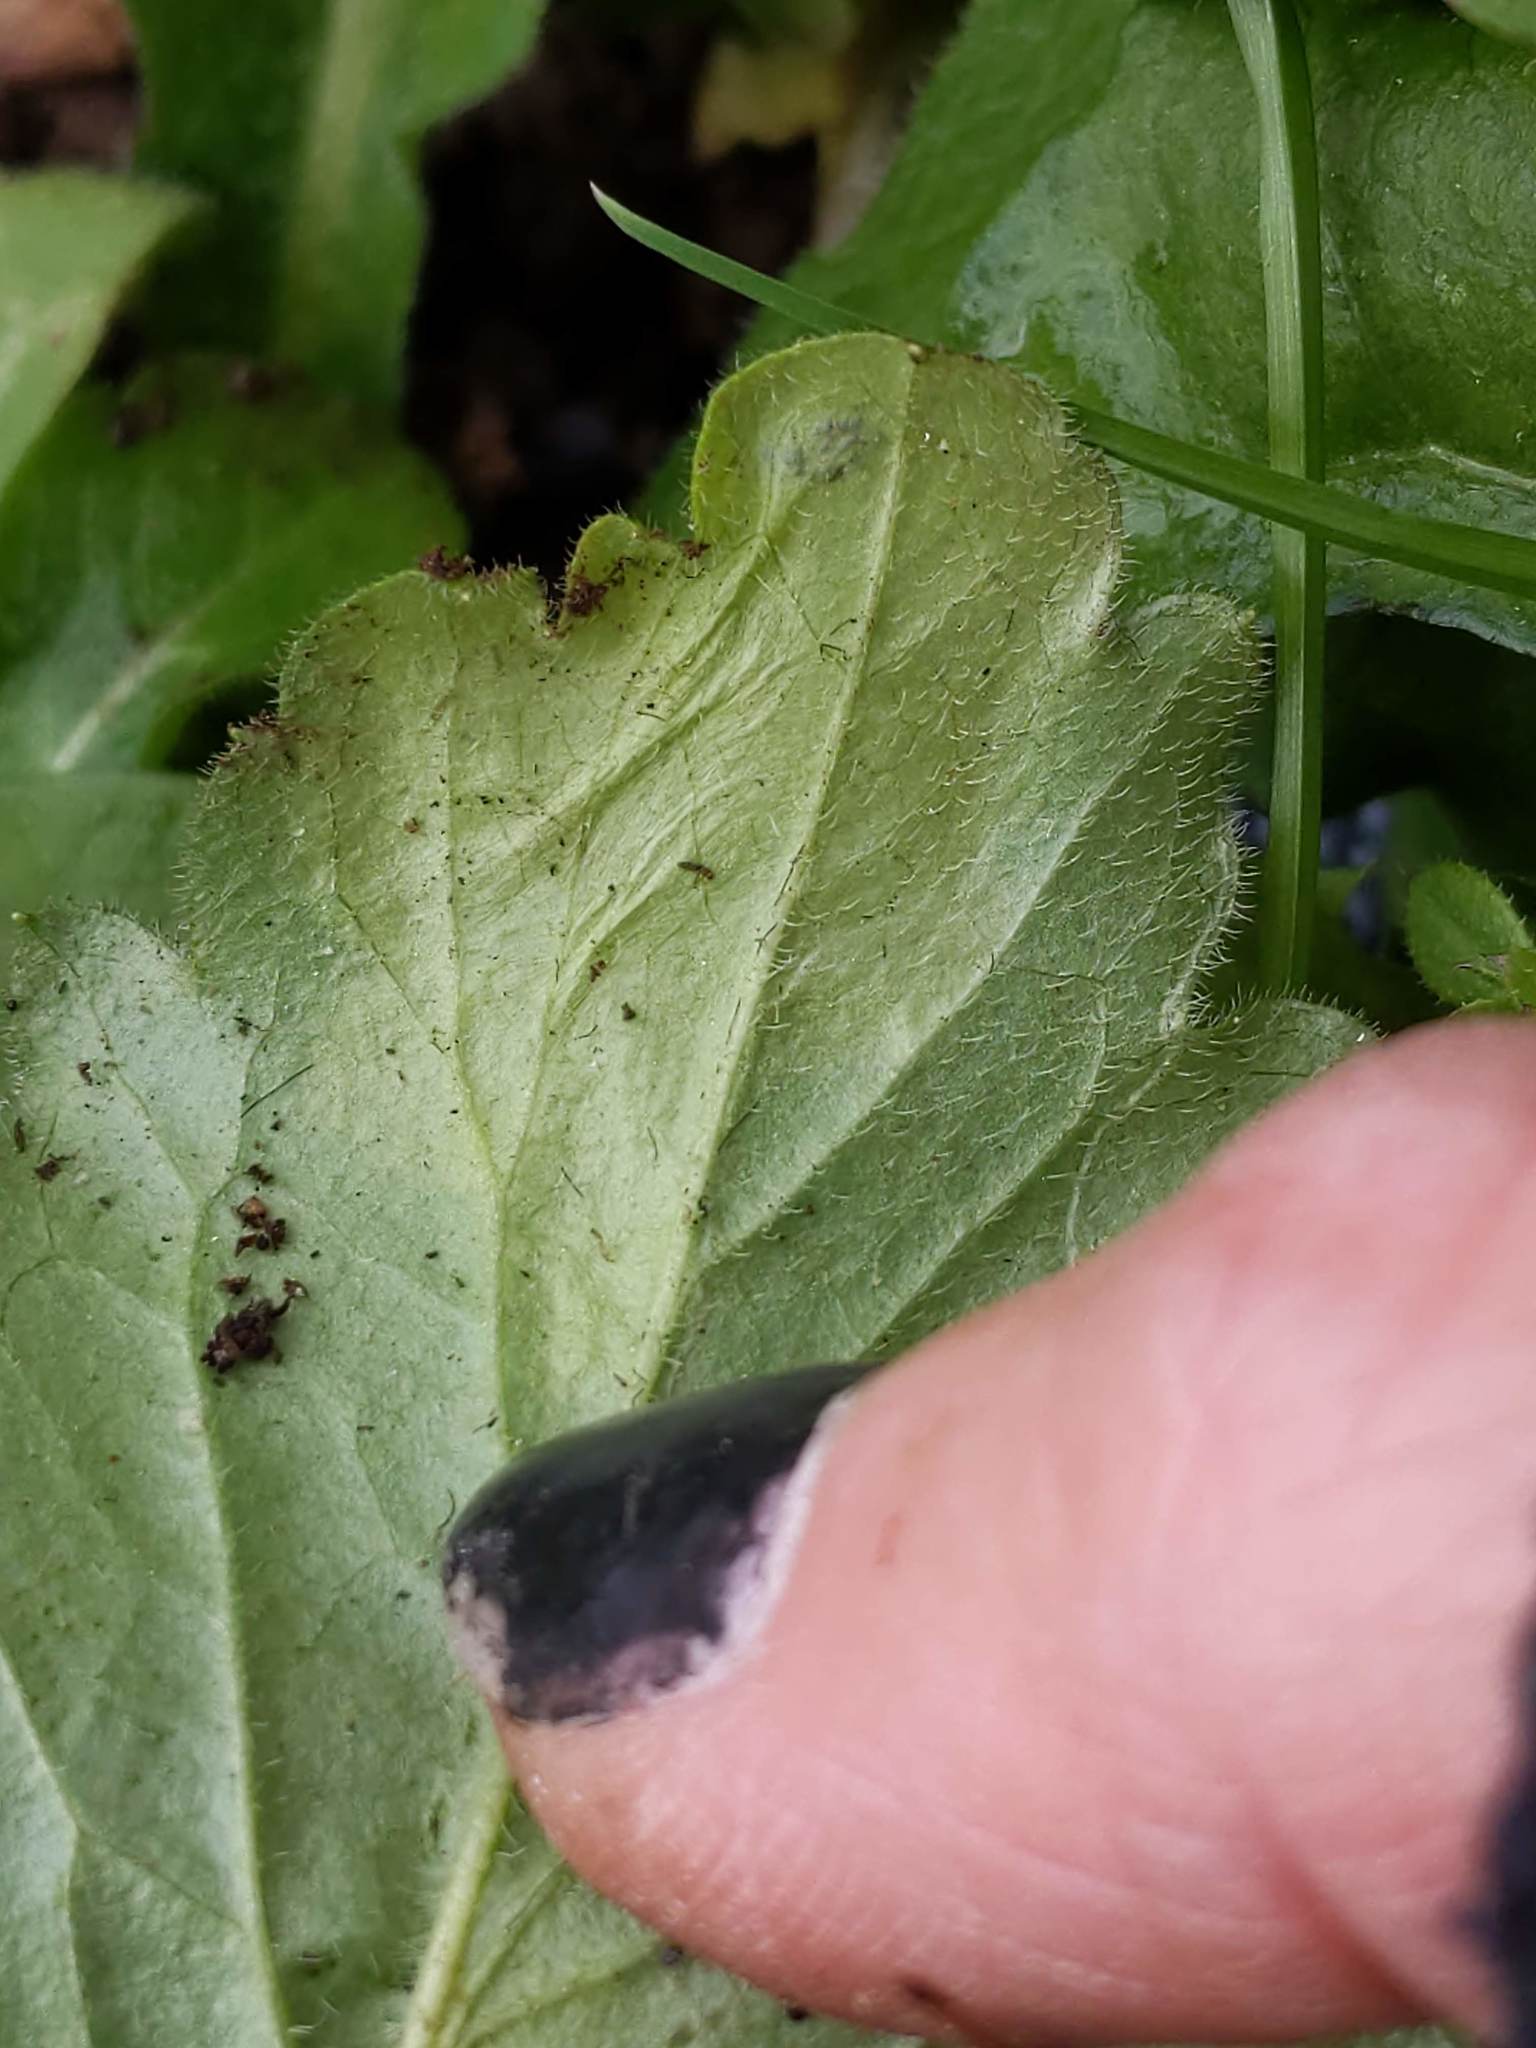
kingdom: Animalia
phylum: Arthropoda
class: Insecta
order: Lepidoptera
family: Gracillariidae
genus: Parectopa
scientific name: Parectopa plantaginisella
